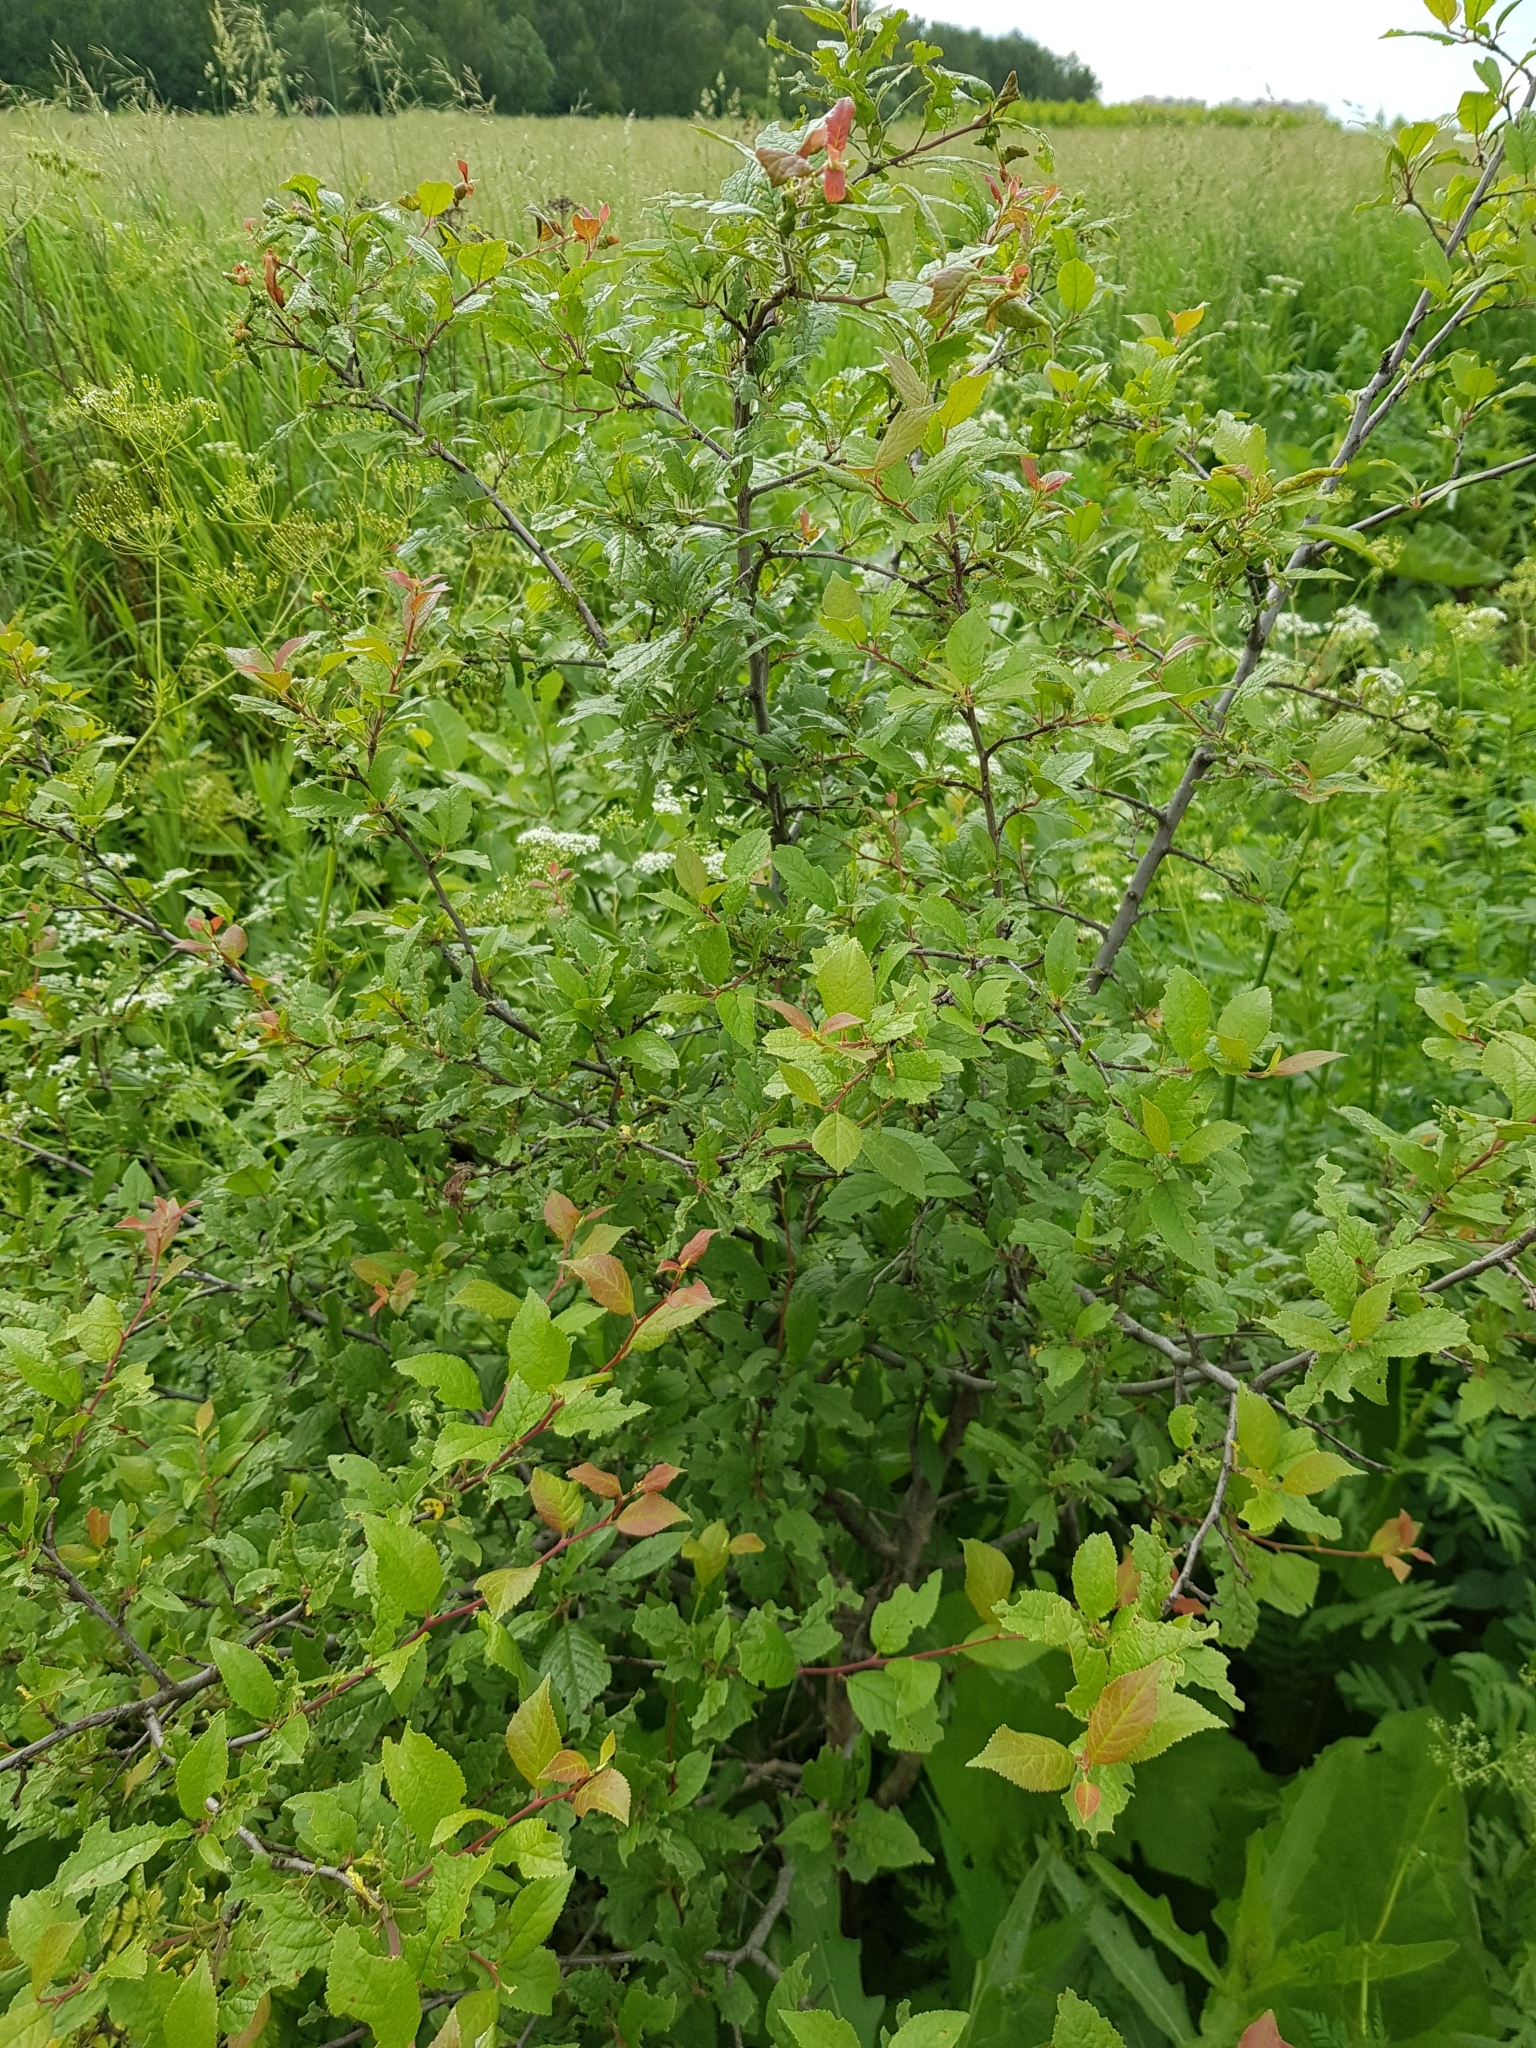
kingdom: Plantae
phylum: Tracheophyta
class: Magnoliopsida
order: Rosales
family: Rosaceae
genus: Prunus
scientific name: Prunus spinosa
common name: Blackthorn
